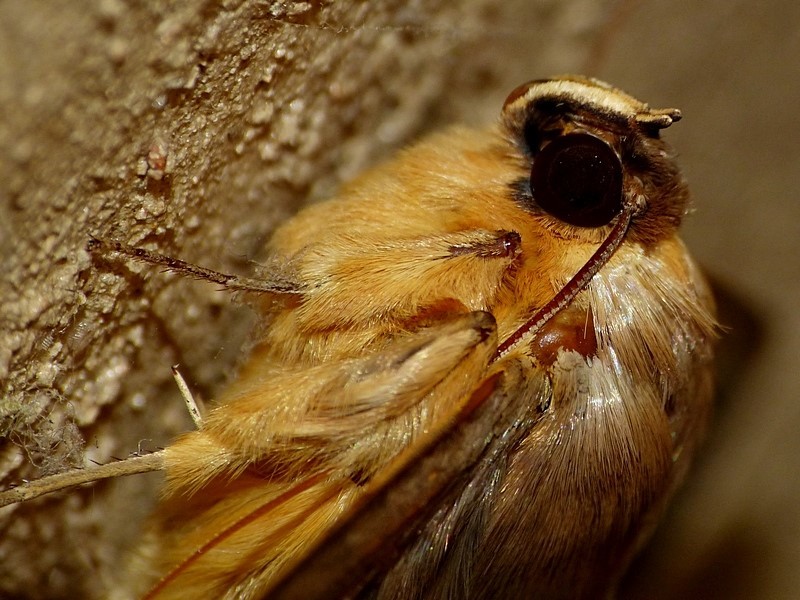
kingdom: Animalia
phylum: Arthropoda
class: Insecta
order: Lepidoptera
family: Erebidae
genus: Dasypodia
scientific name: Dasypodia selenophora
